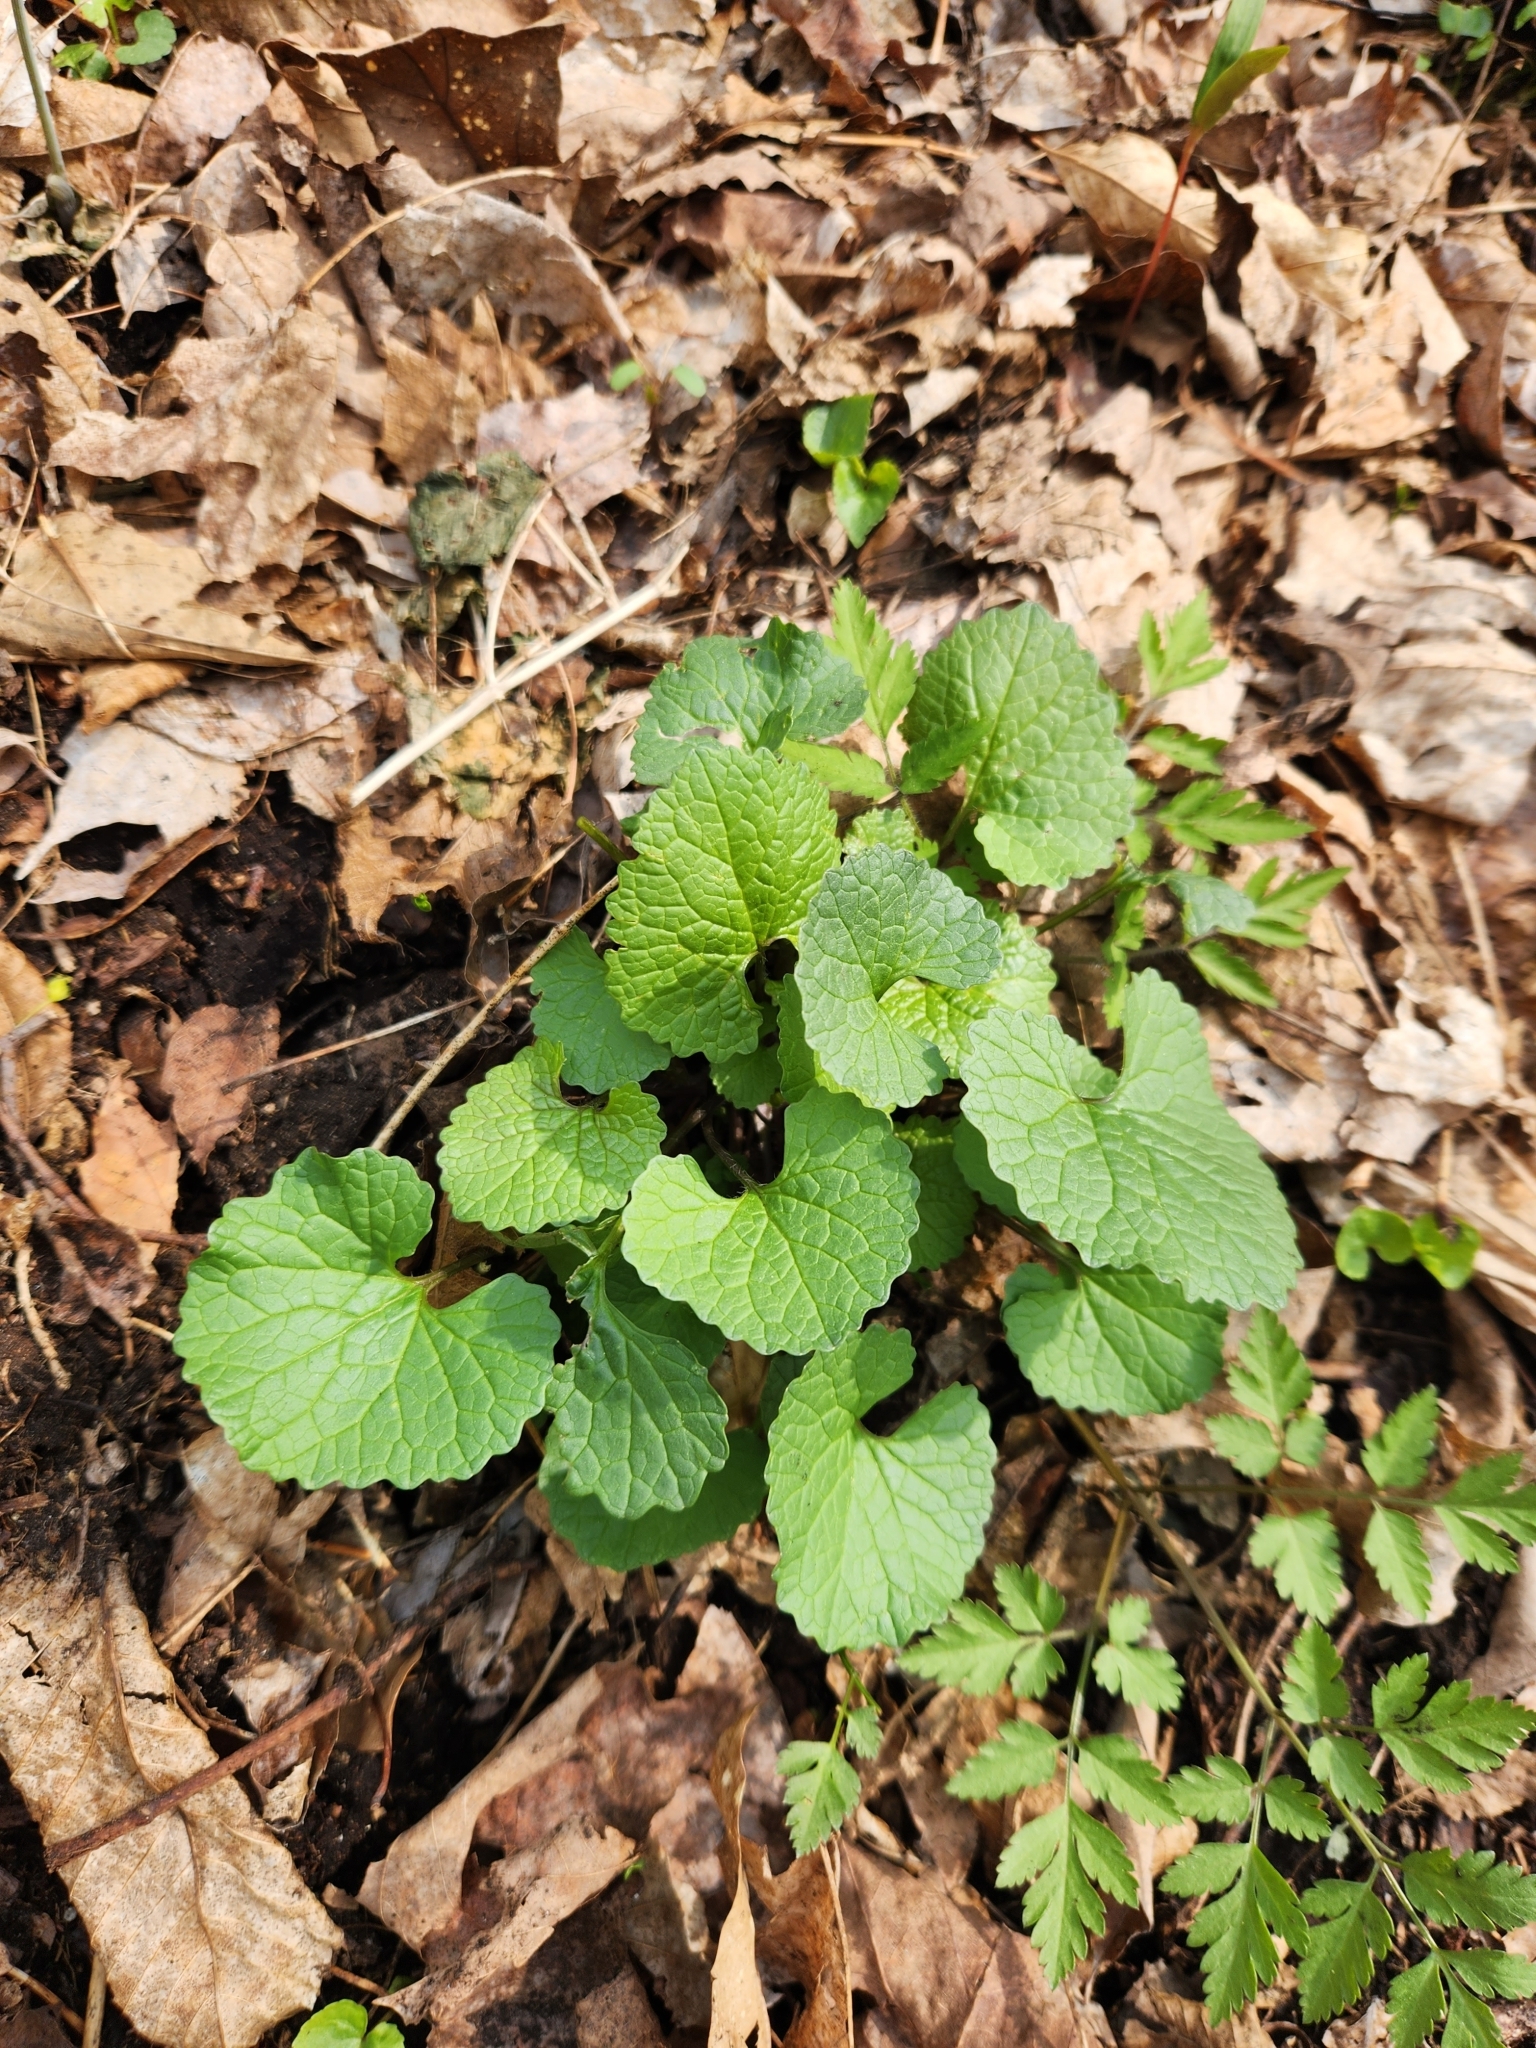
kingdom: Plantae
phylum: Tracheophyta
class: Magnoliopsida
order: Brassicales
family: Brassicaceae
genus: Alliaria
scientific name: Alliaria petiolata
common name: Garlic mustard
